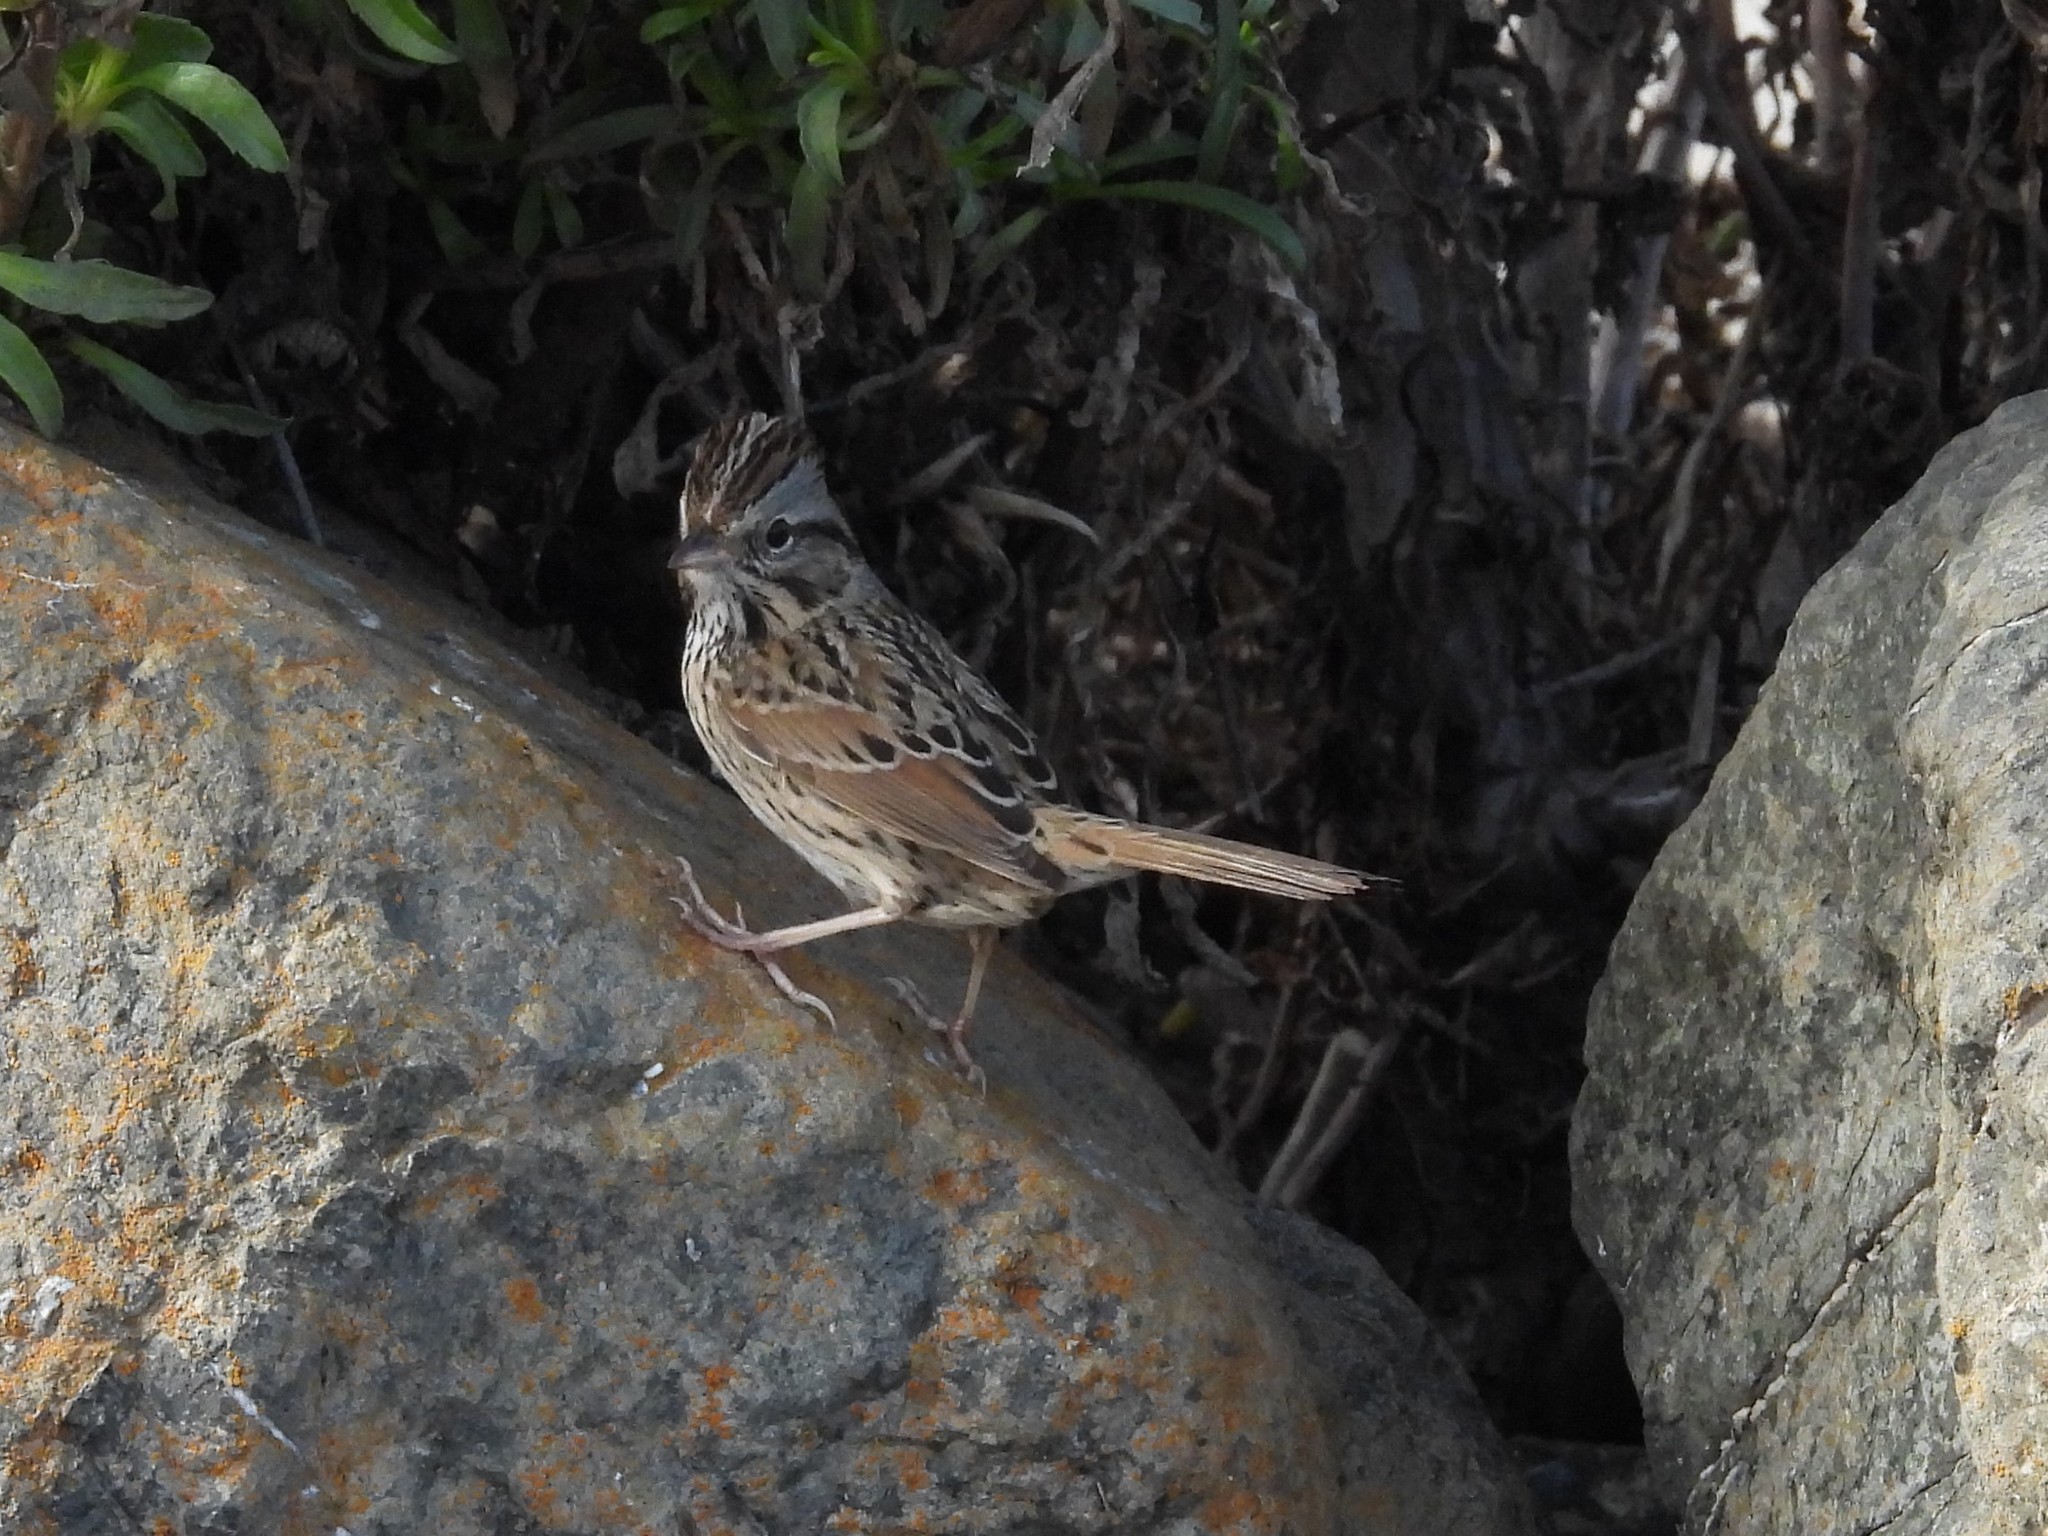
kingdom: Animalia
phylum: Chordata
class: Aves
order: Passeriformes
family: Passerellidae
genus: Melospiza
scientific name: Melospiza lincolnii
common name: Lincoln's sparrow
